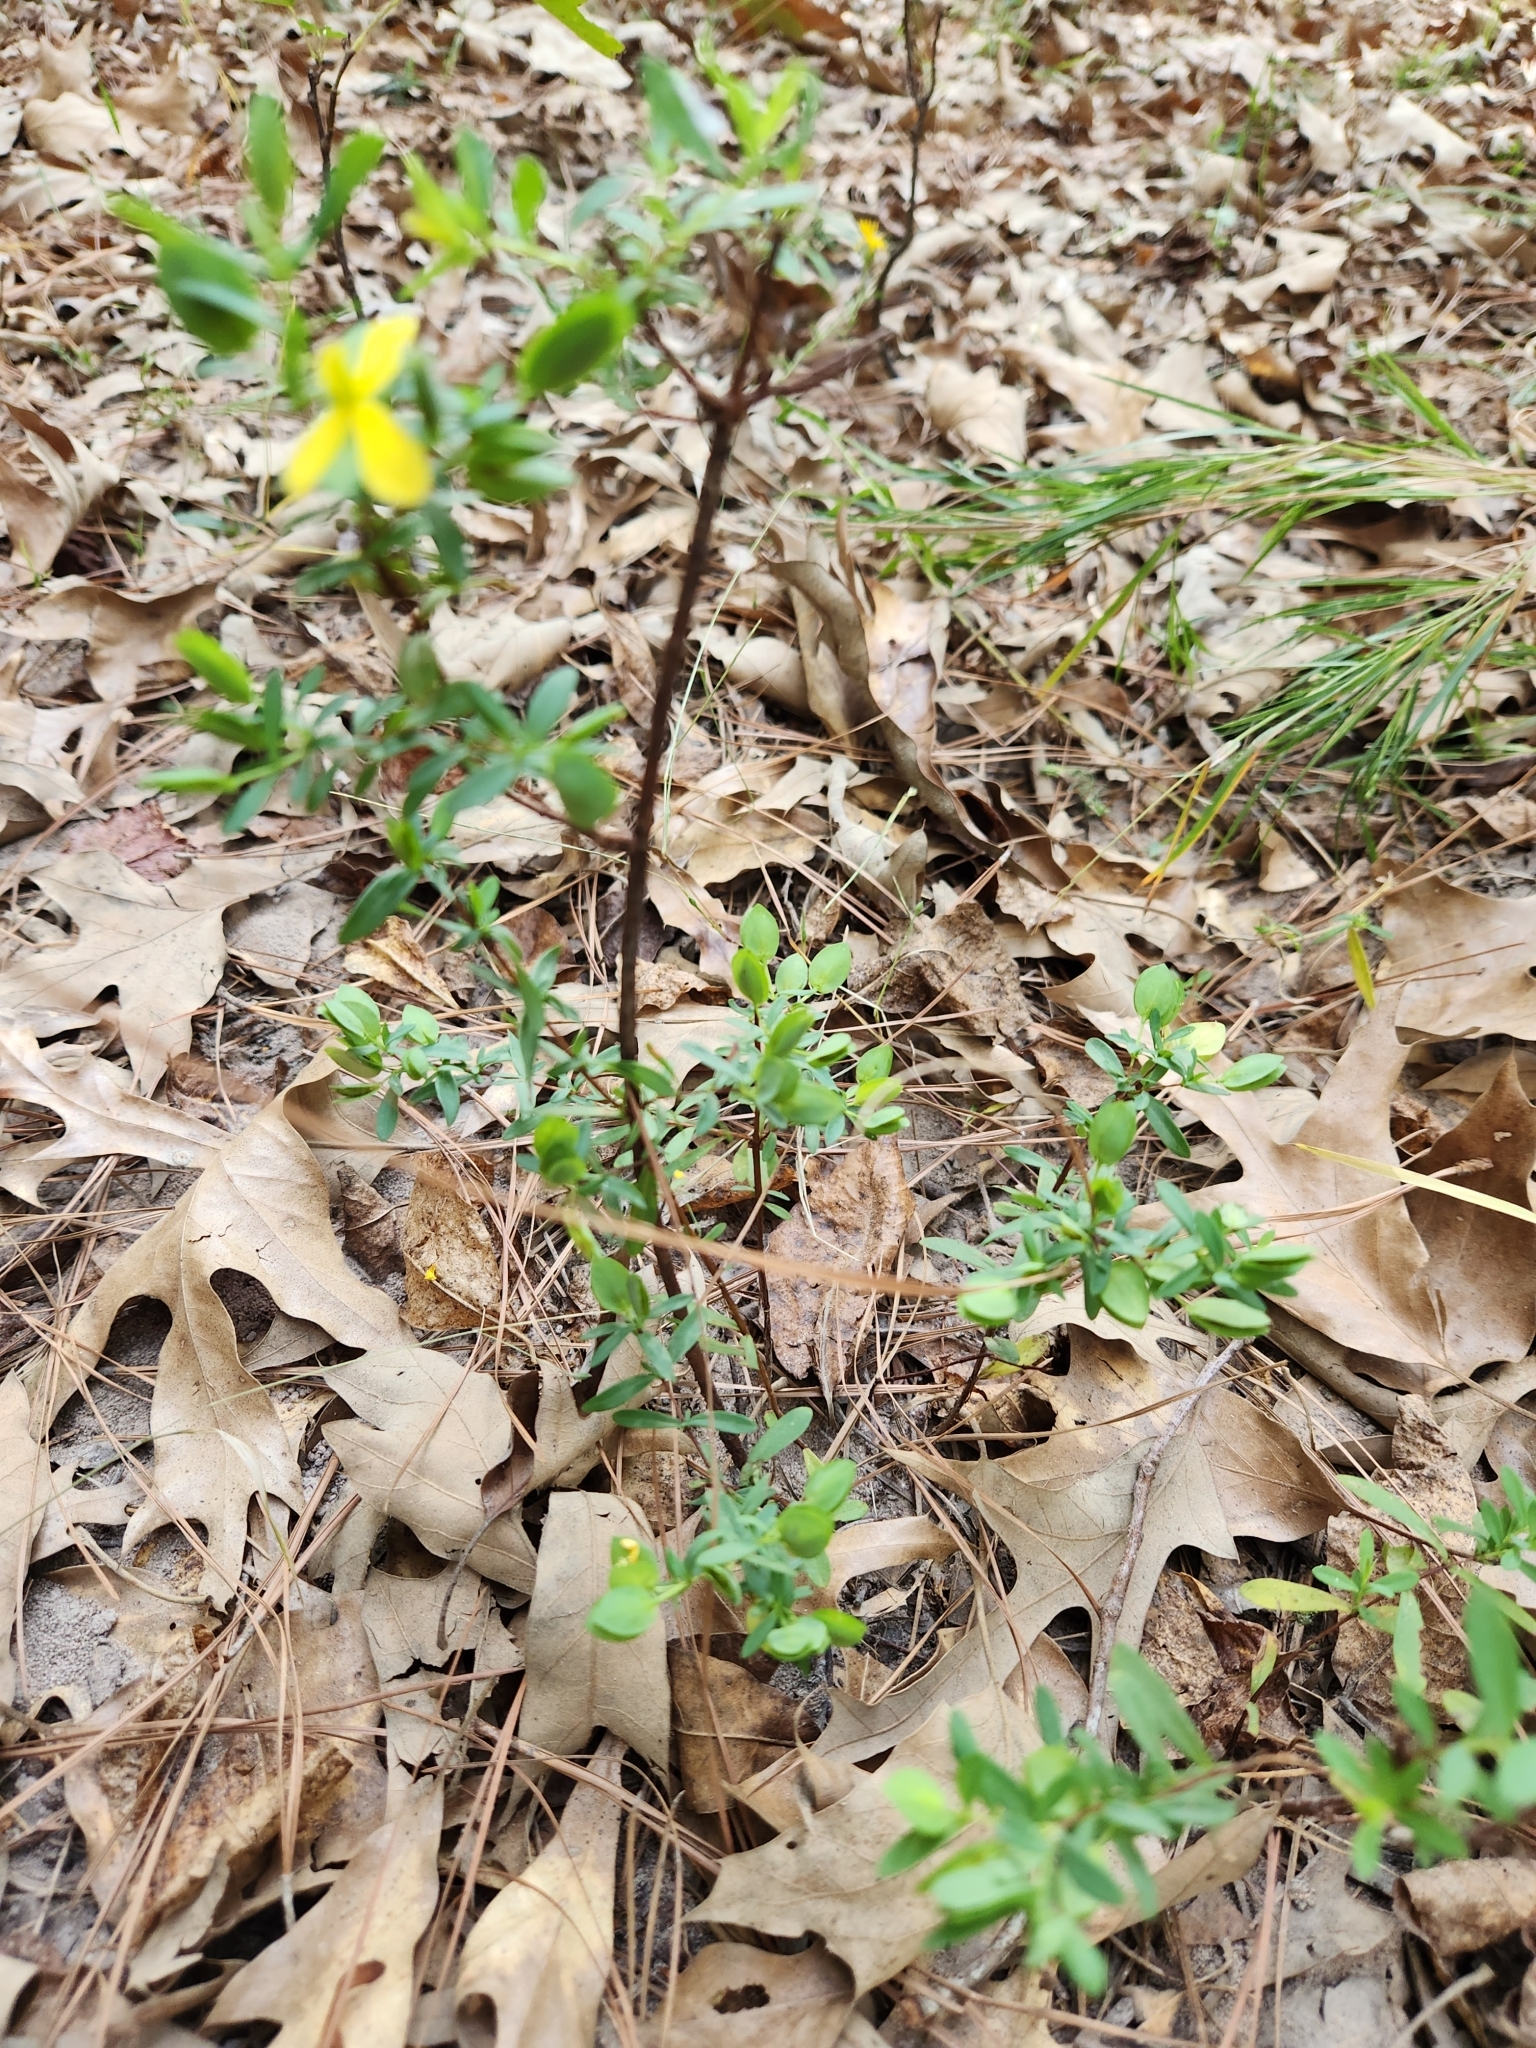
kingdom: Plantae
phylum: Tracheophyta
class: Magnoliopsida
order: Malpighiales
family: Hypericaceae
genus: Hypericum
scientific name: Hypericum hypericoides
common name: St. andrew's cross
